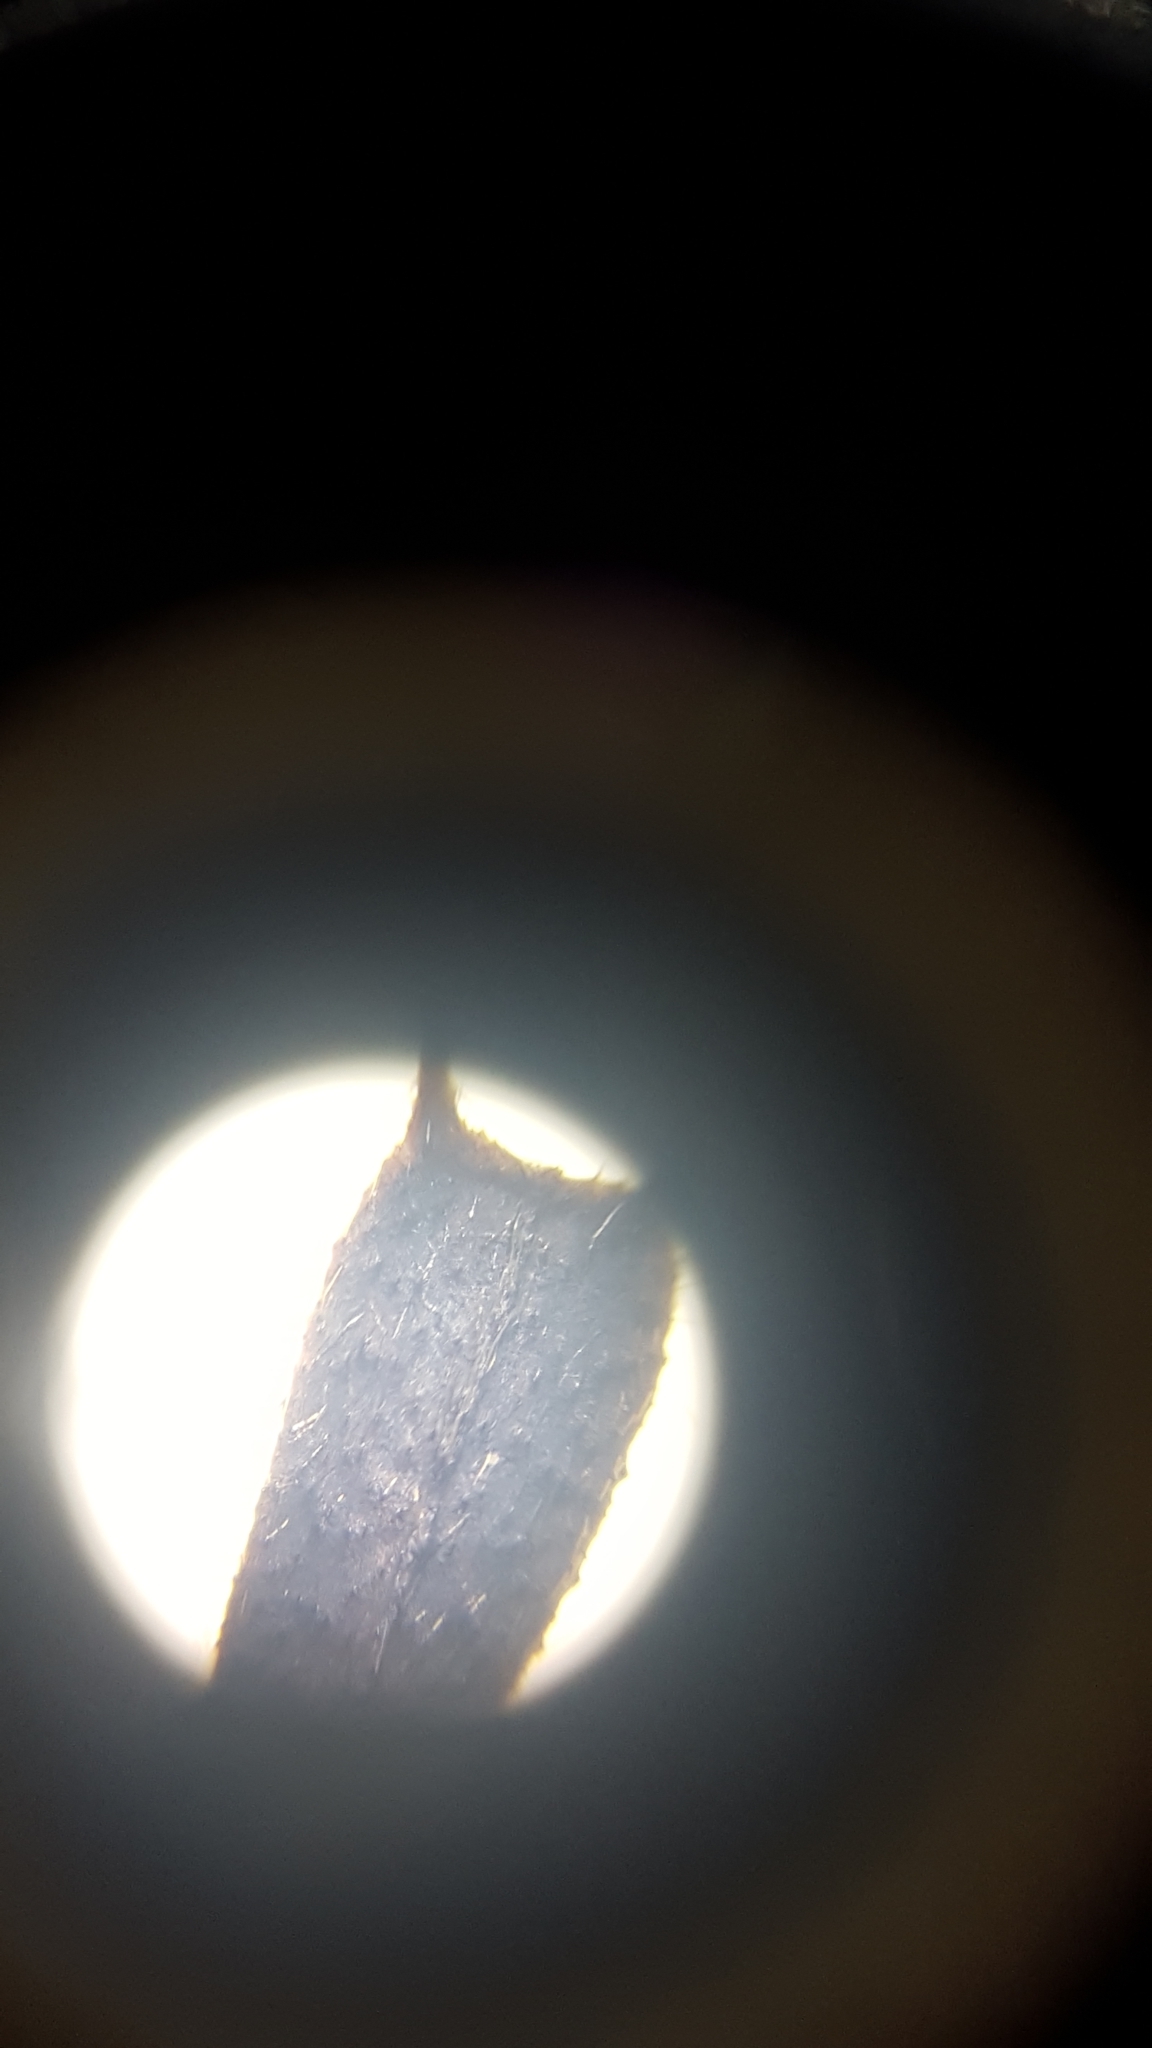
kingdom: Plantae
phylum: Tracheophyta
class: Magnoliopsida
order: Asterales
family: Asteraceae
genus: Bidens
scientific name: Bidens frondosa
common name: Beggarticks
